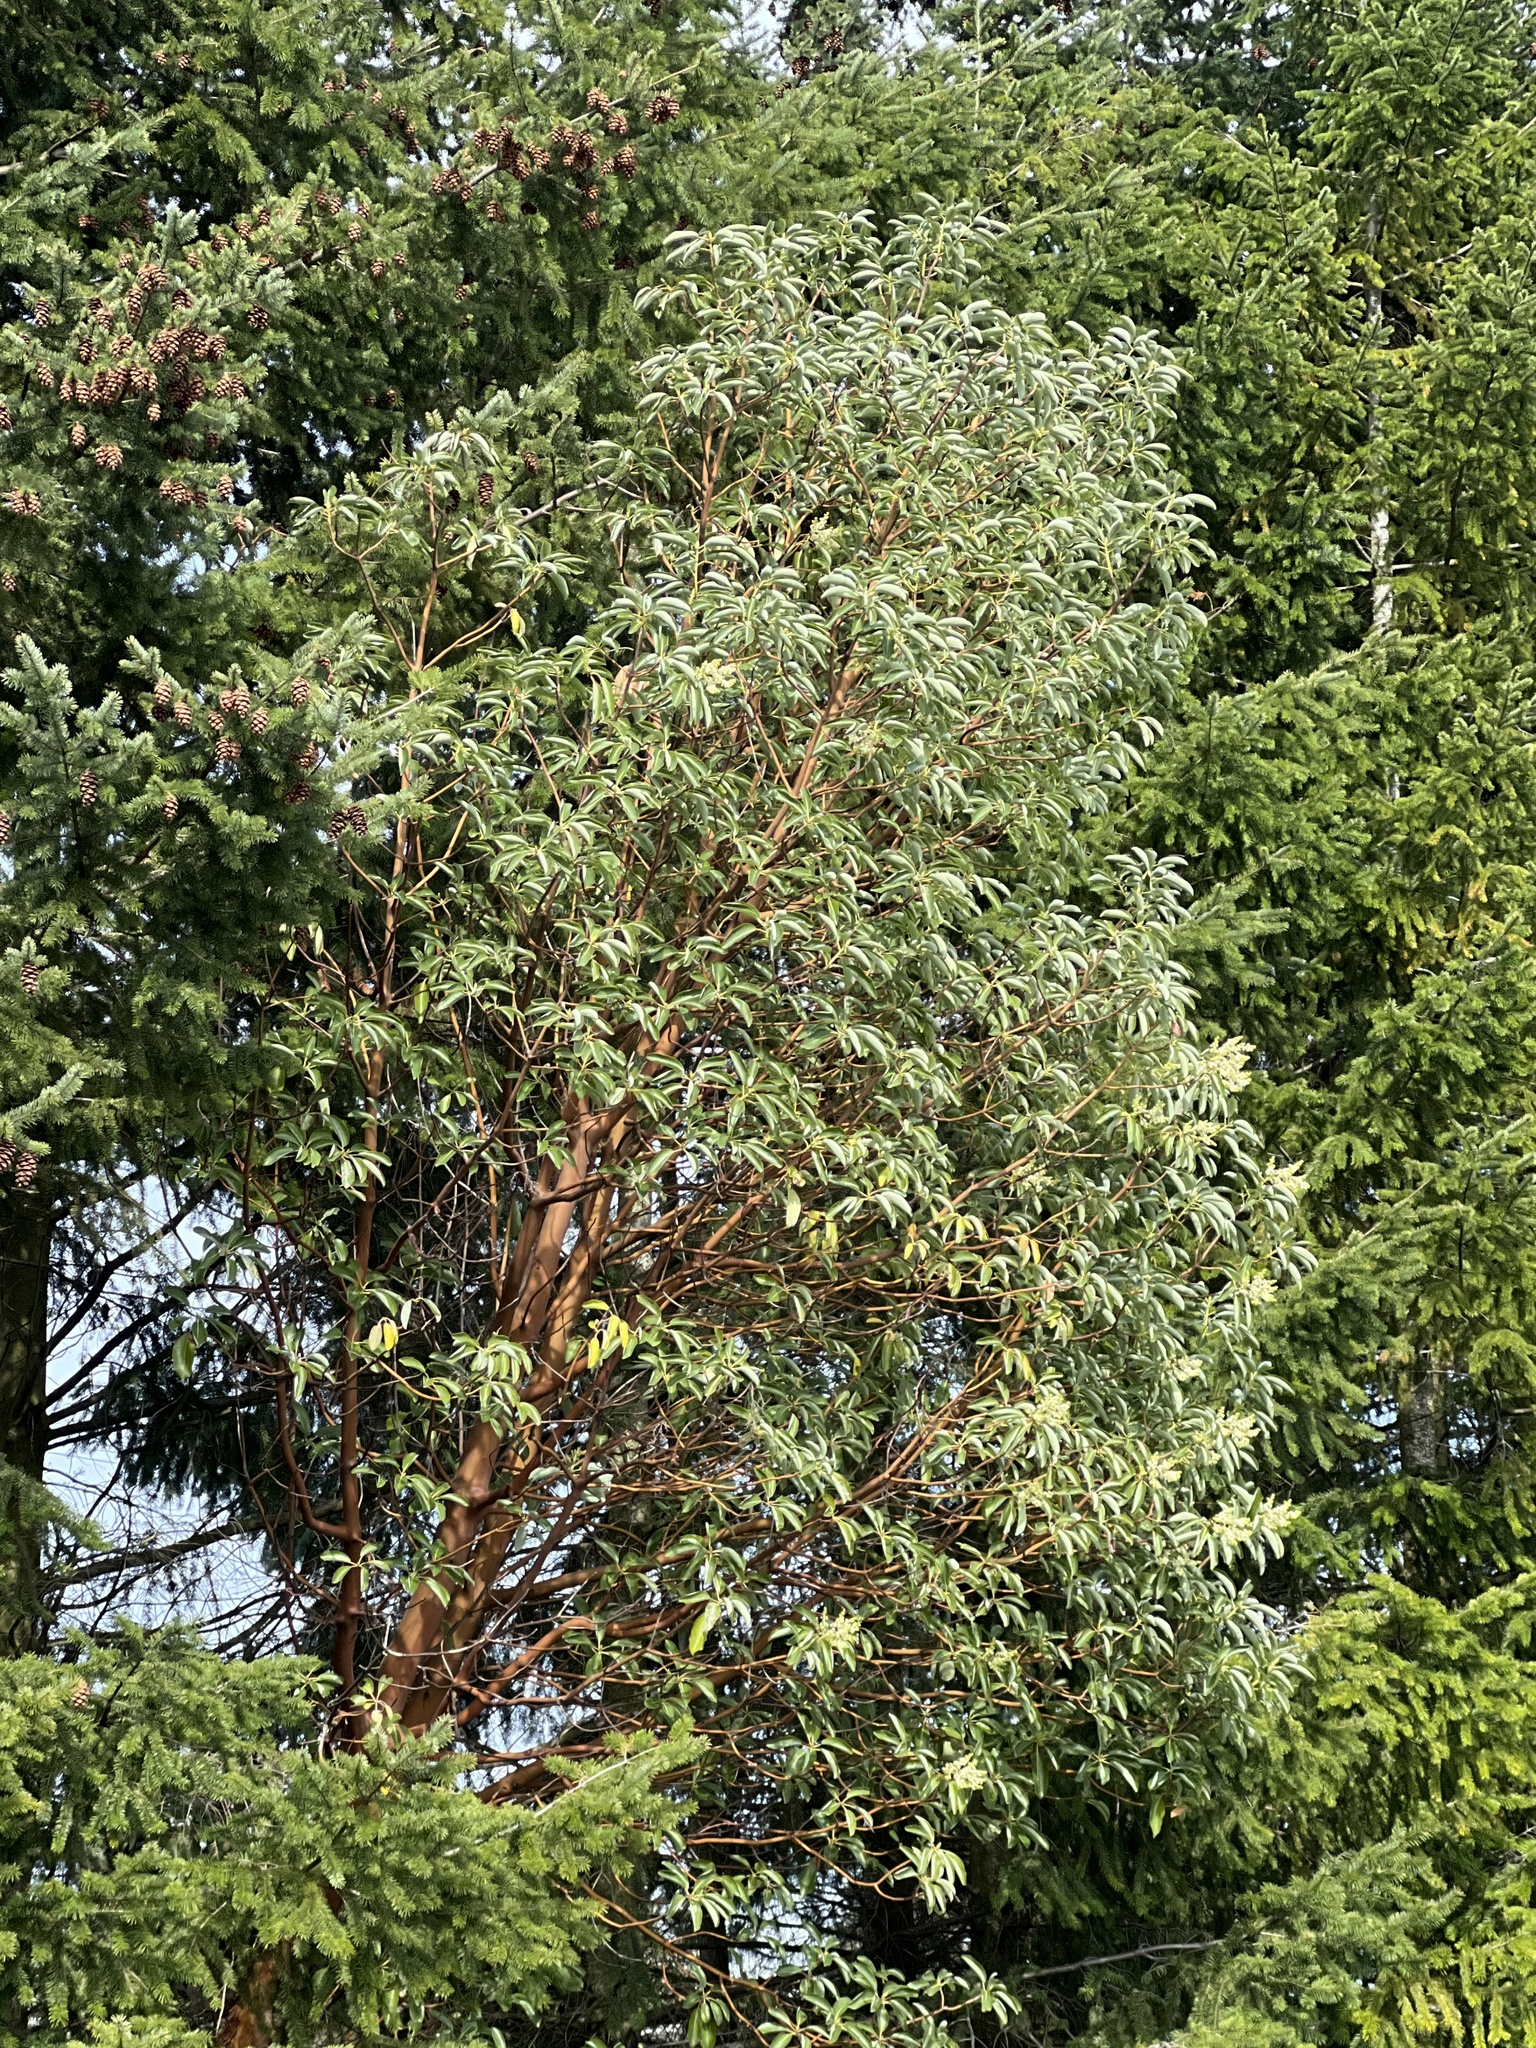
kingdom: Plantae
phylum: Tracheophyta
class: Magnoliopsida
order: Ericales
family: Ericaceae
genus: Arbutus
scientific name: Arbutus menziesii
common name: Pacific madrone
